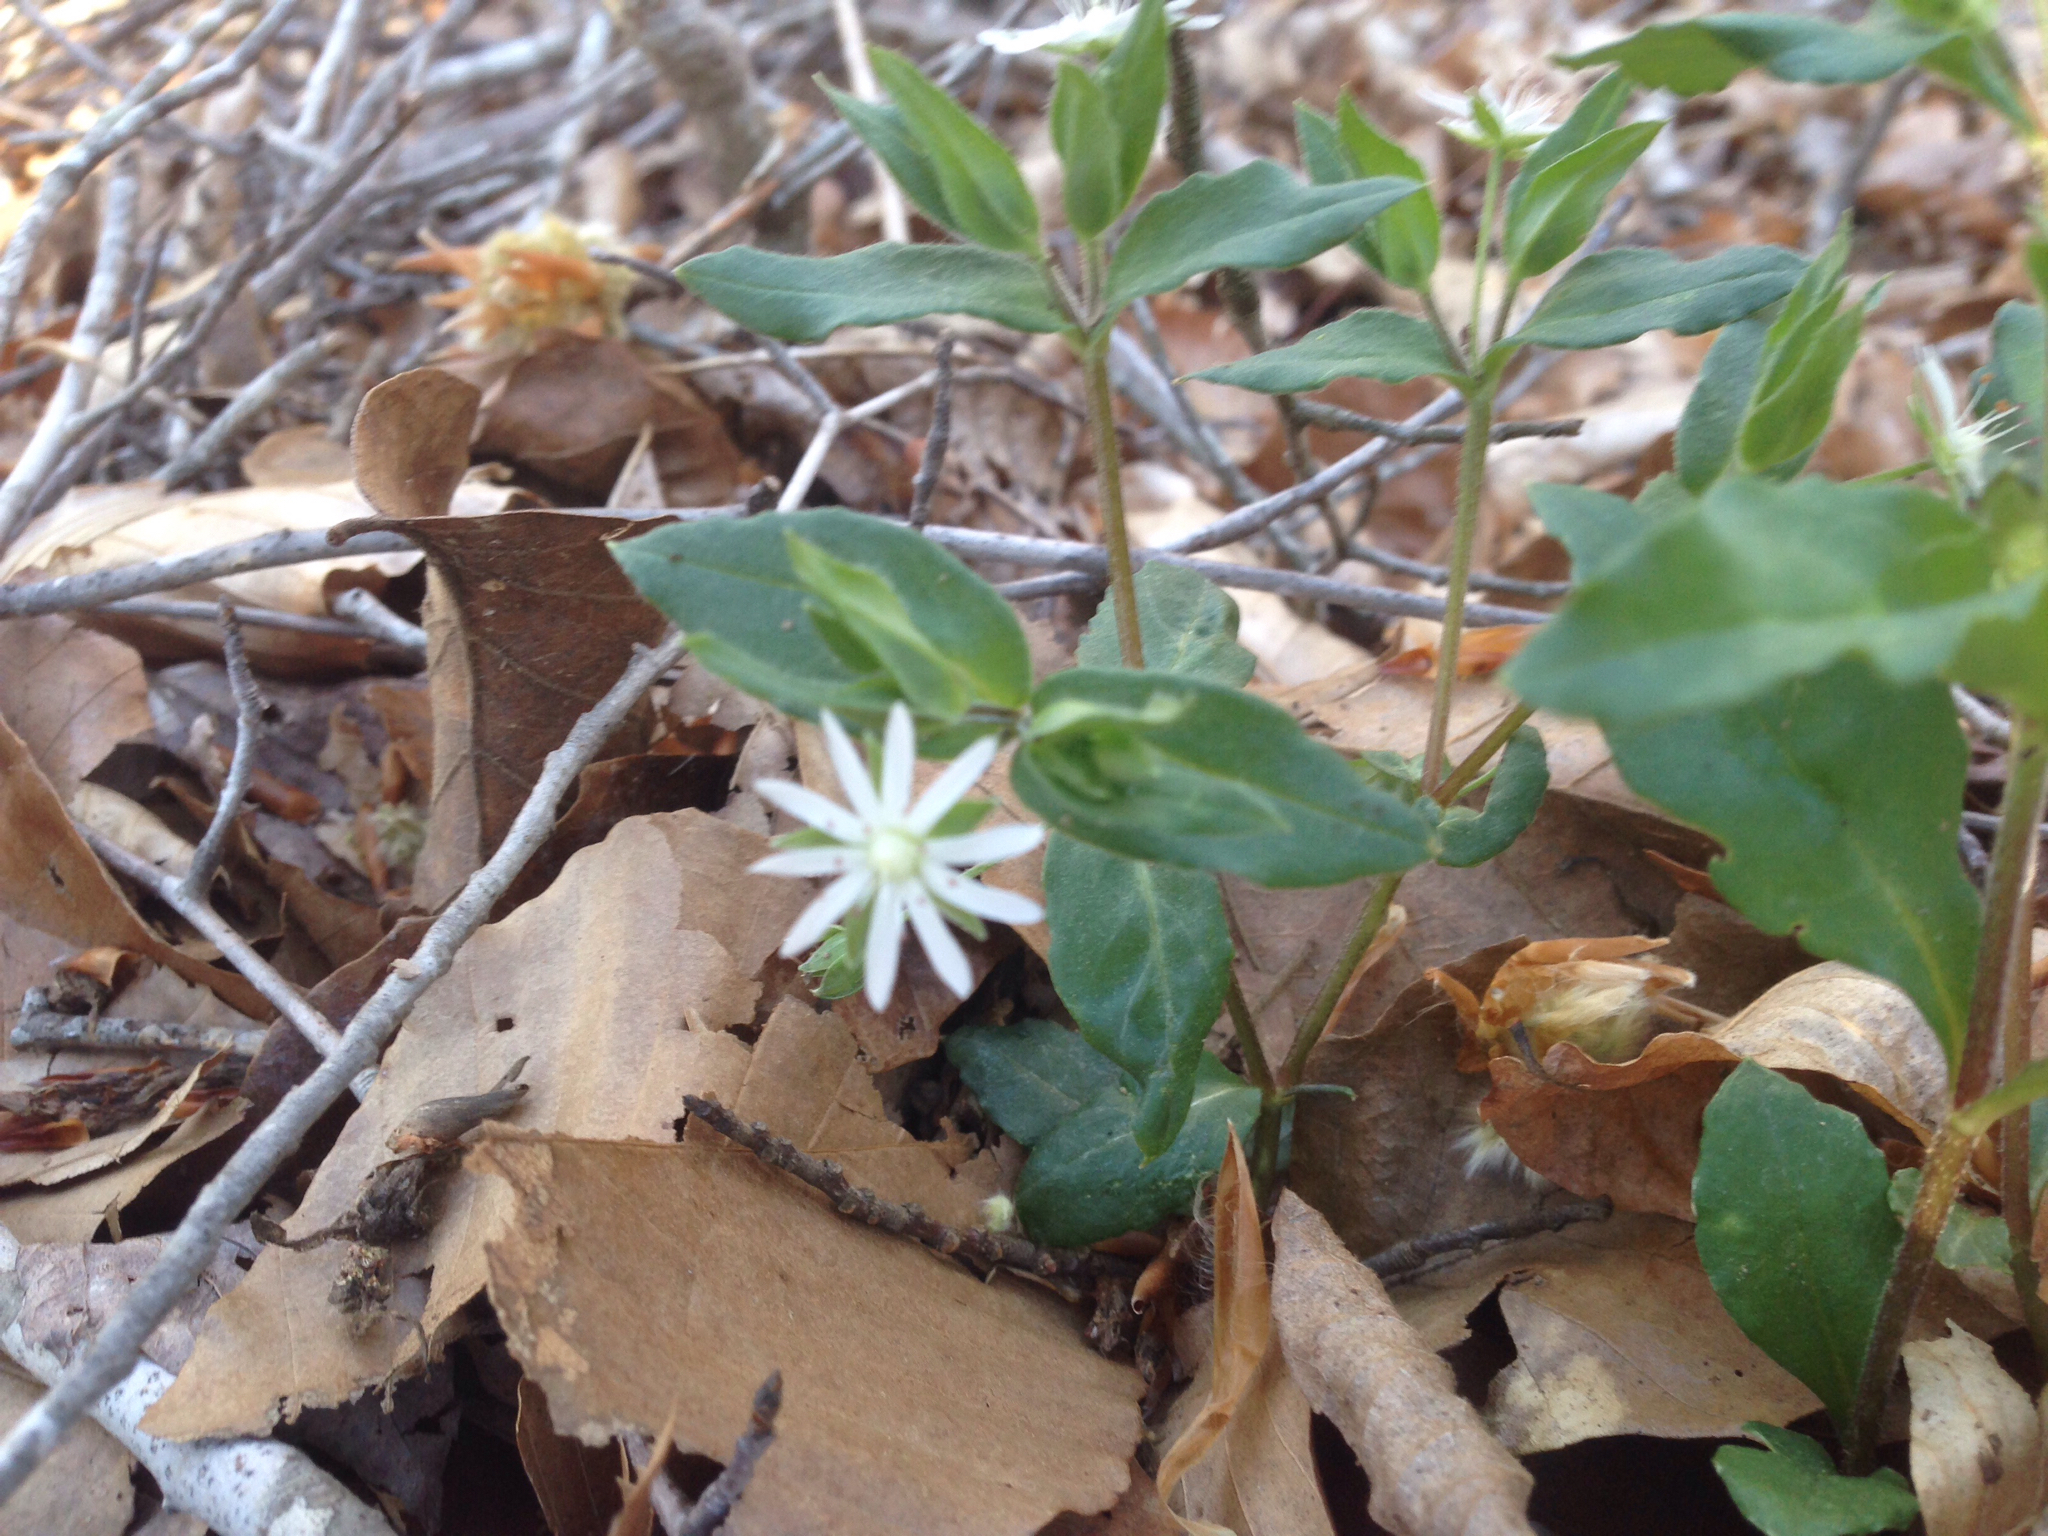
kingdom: Plantae
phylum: Tracheophyta
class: Magnoliopsida
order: Caryophyllales
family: Caryophyllaceae
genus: Stellaria
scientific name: Stellaria pubera
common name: Star chickweed
